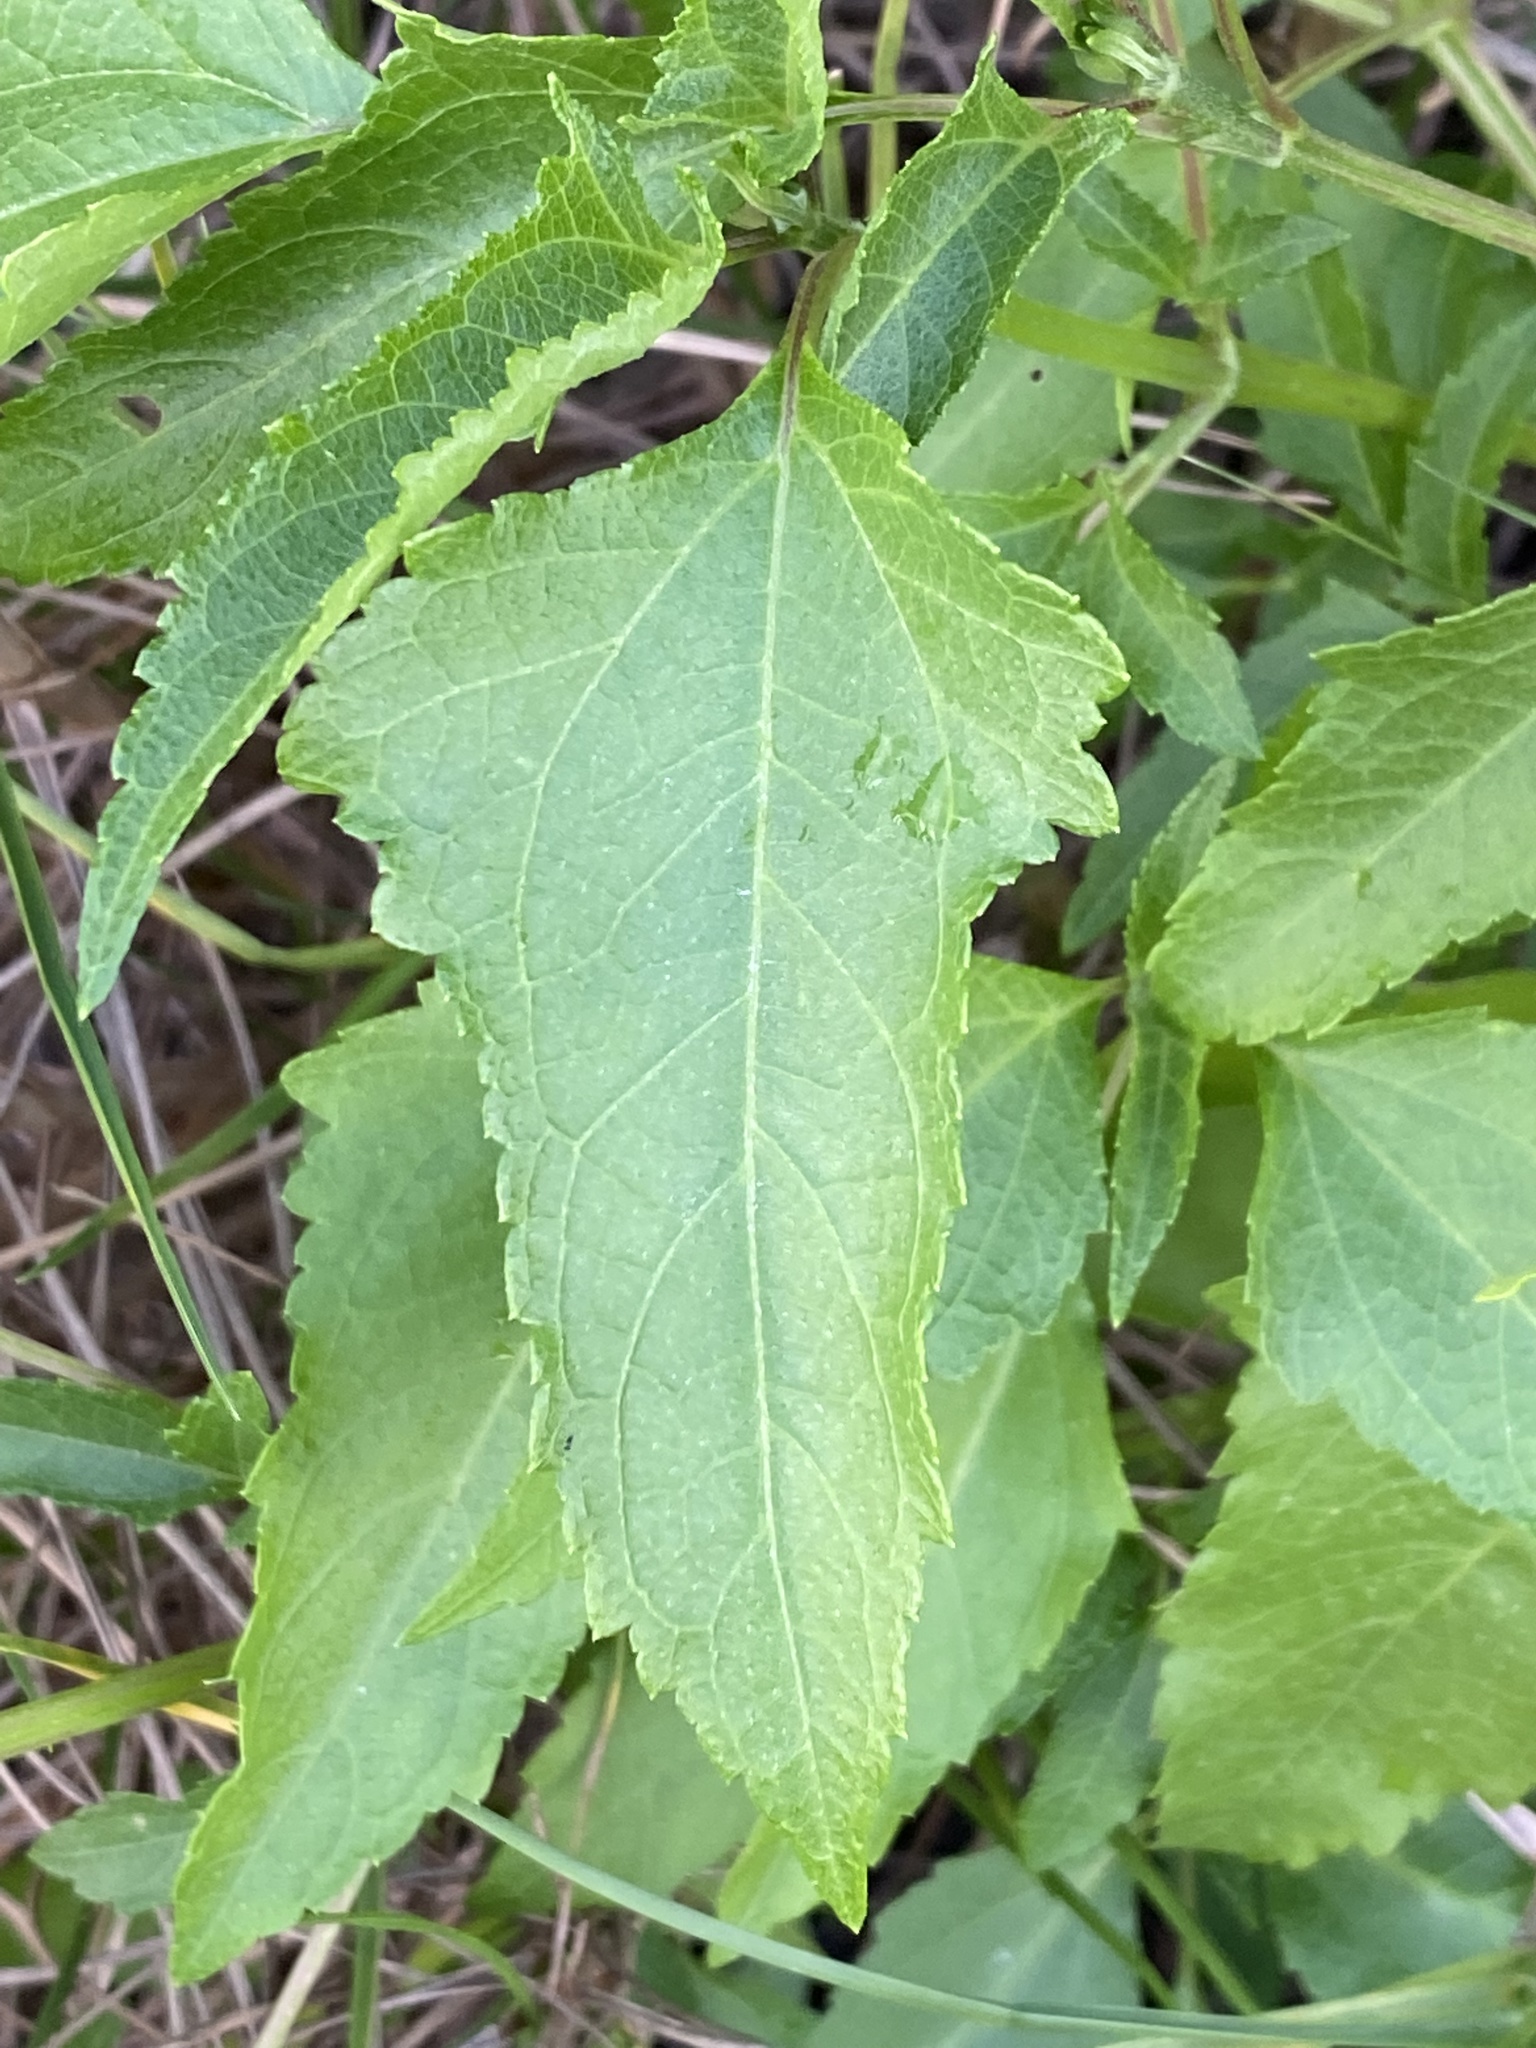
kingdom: Plantae
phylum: Tracheophyta
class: Magnoliopsida
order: Asterales
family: Asteraceae
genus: Melanthera
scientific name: Melanthera nivea
